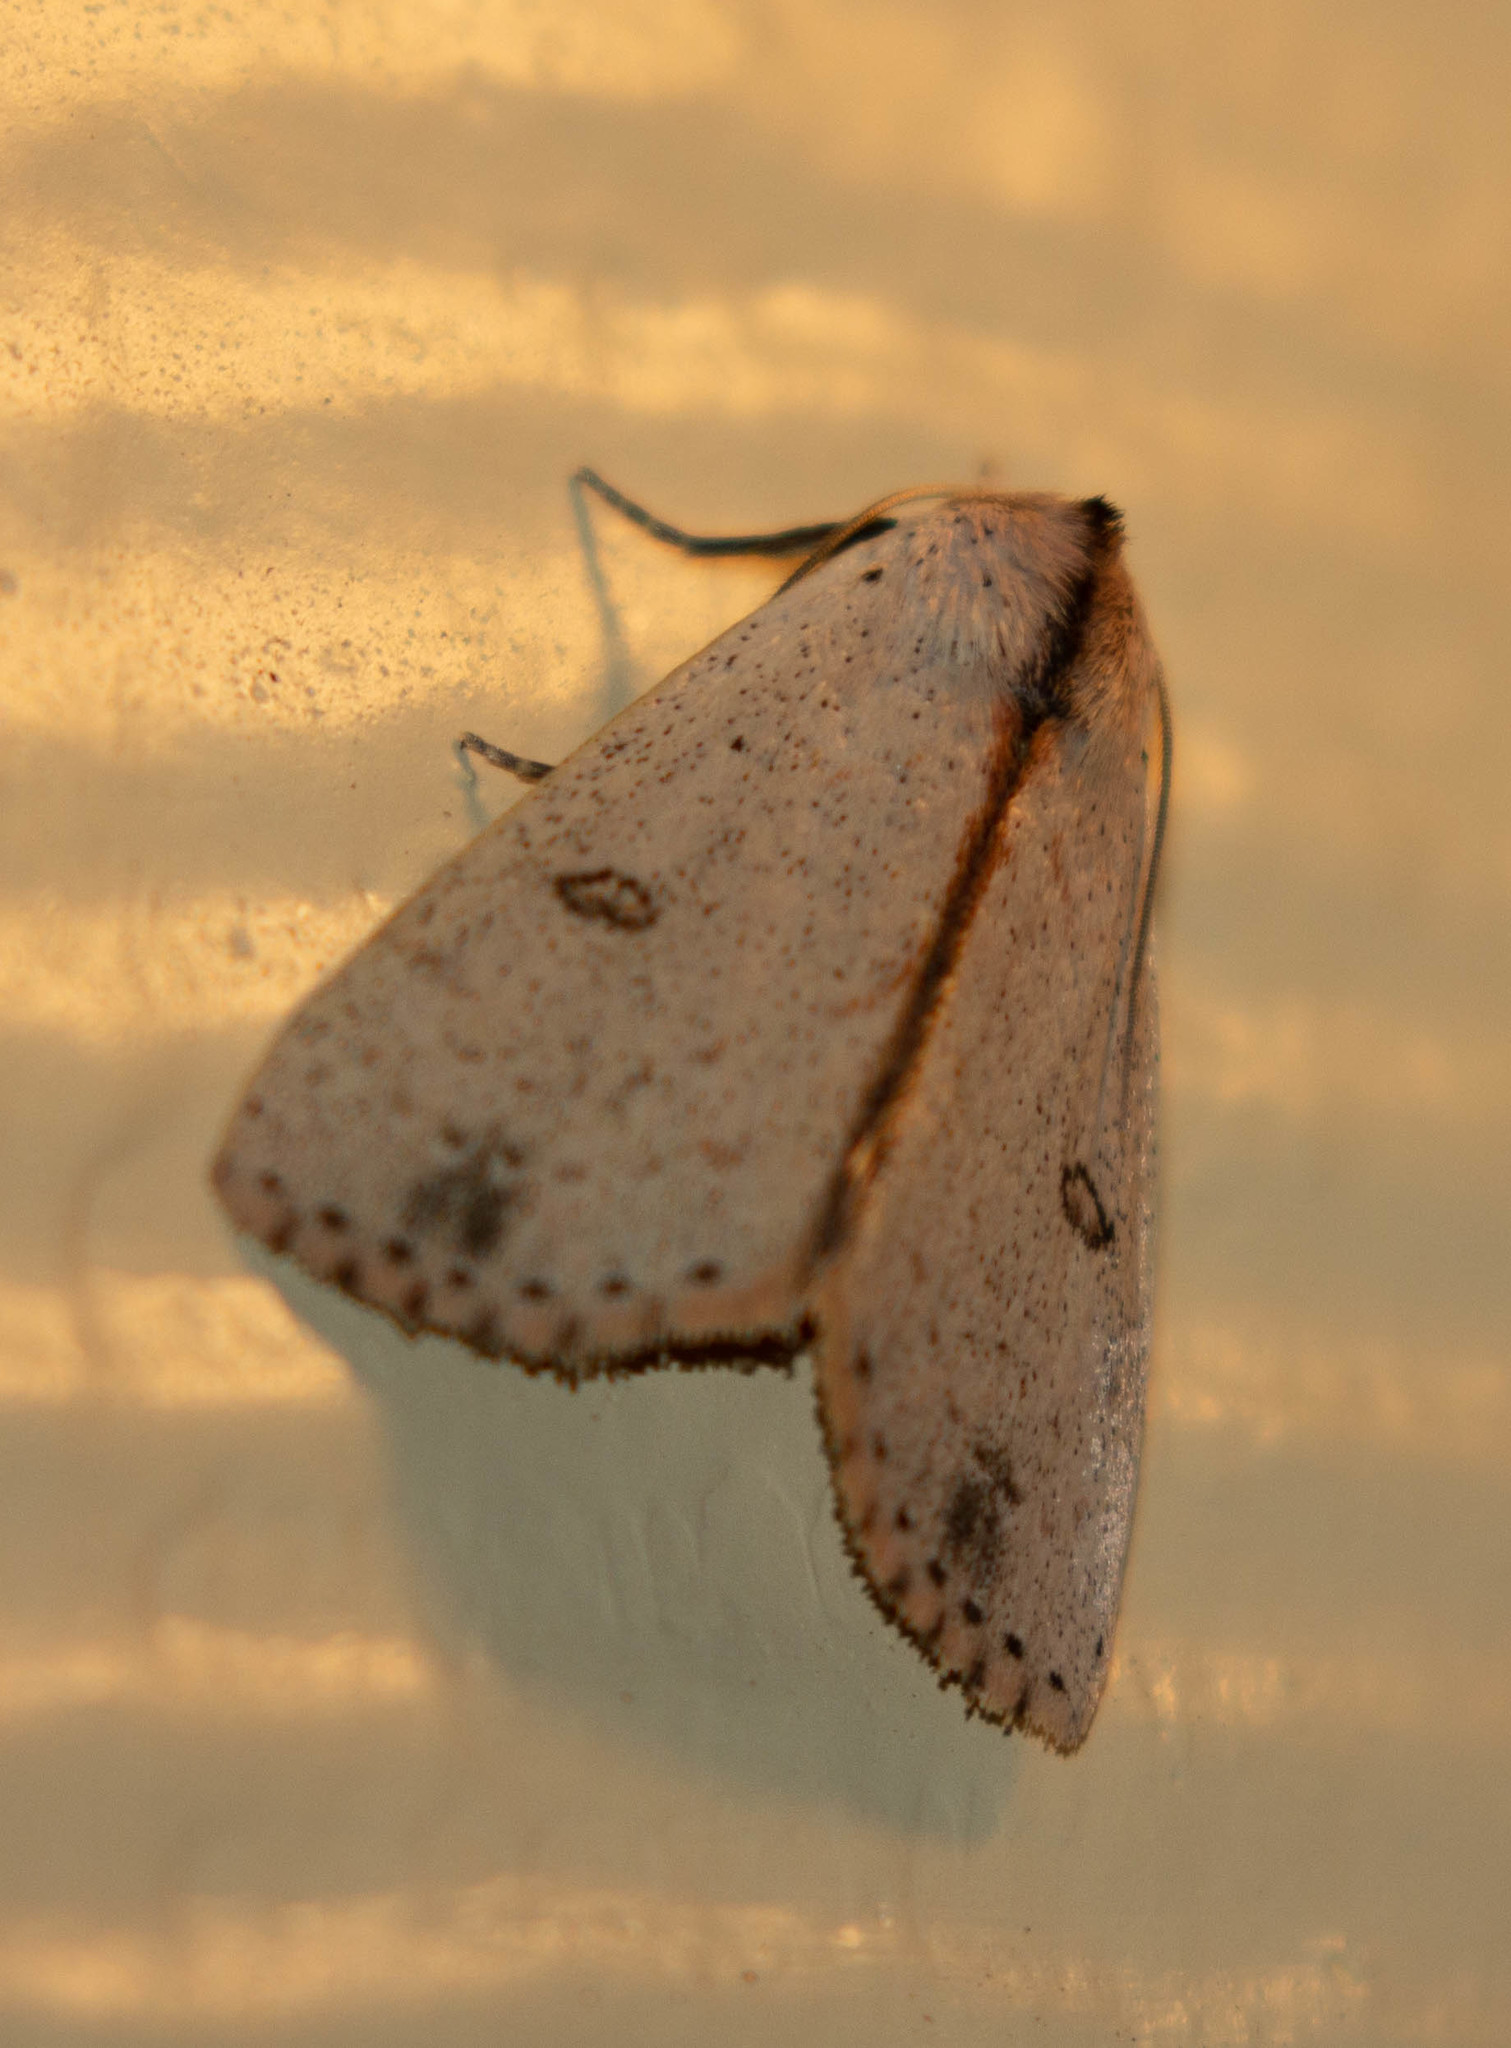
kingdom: Animalia
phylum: Arthropoda
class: Insecta
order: Lepidoptera
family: Erebidae
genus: Scolecocampa
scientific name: Scolecocampa liburna
